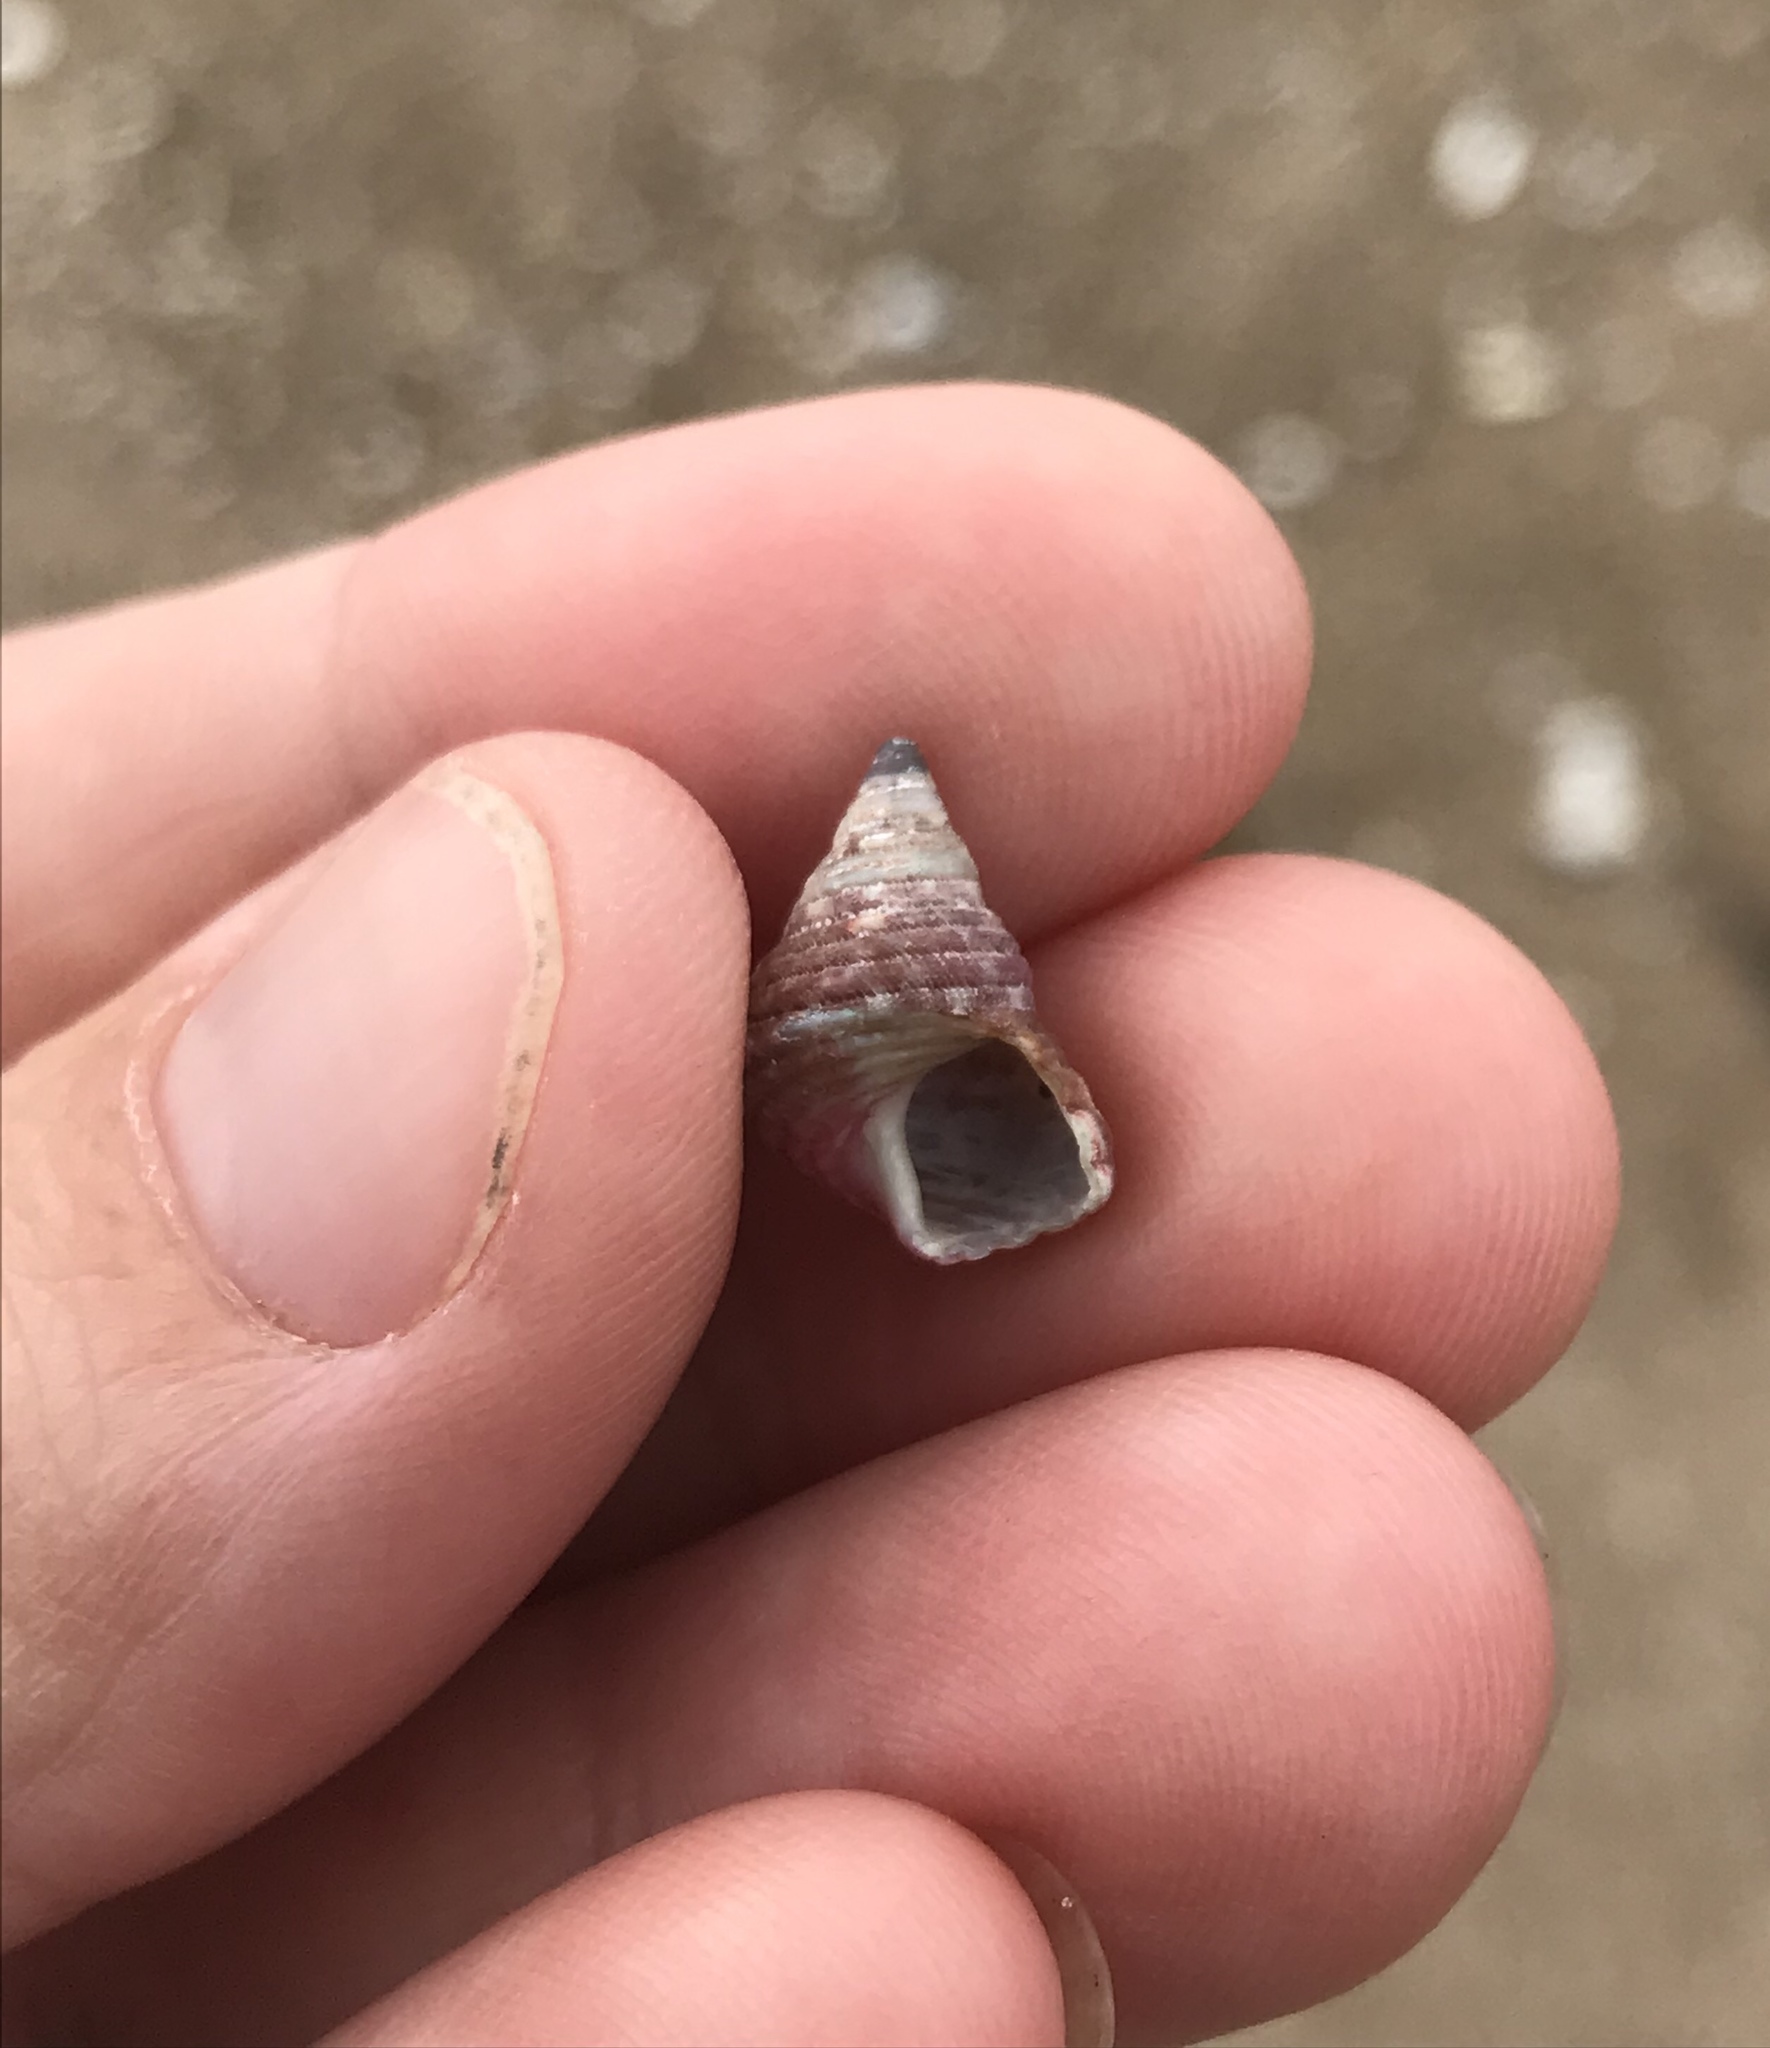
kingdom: Animalia
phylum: Mollusca
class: Gastropoda
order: Trochida
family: Trochidae
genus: Micrelenchus
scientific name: Micrelenchus purpureus
